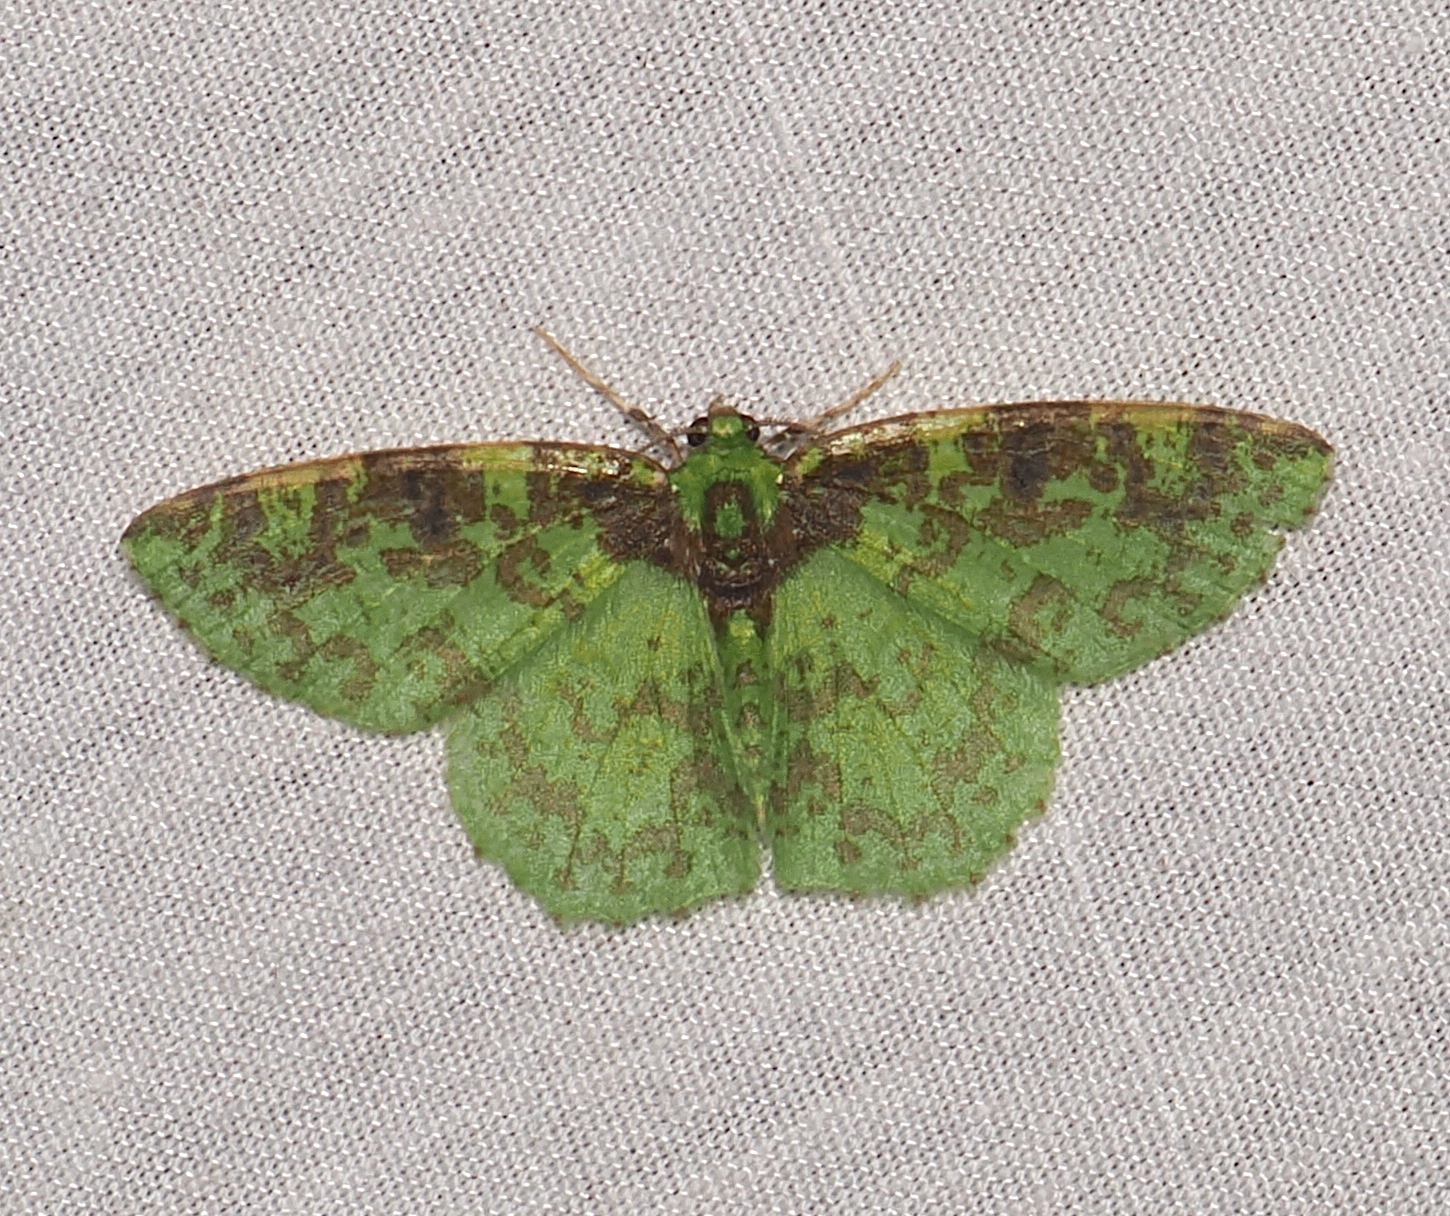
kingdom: Animalia
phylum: Arthropoda
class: Insecta
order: Lepidoptera
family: Geometridae
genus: Nemoria
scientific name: Nemoria scriptaria
